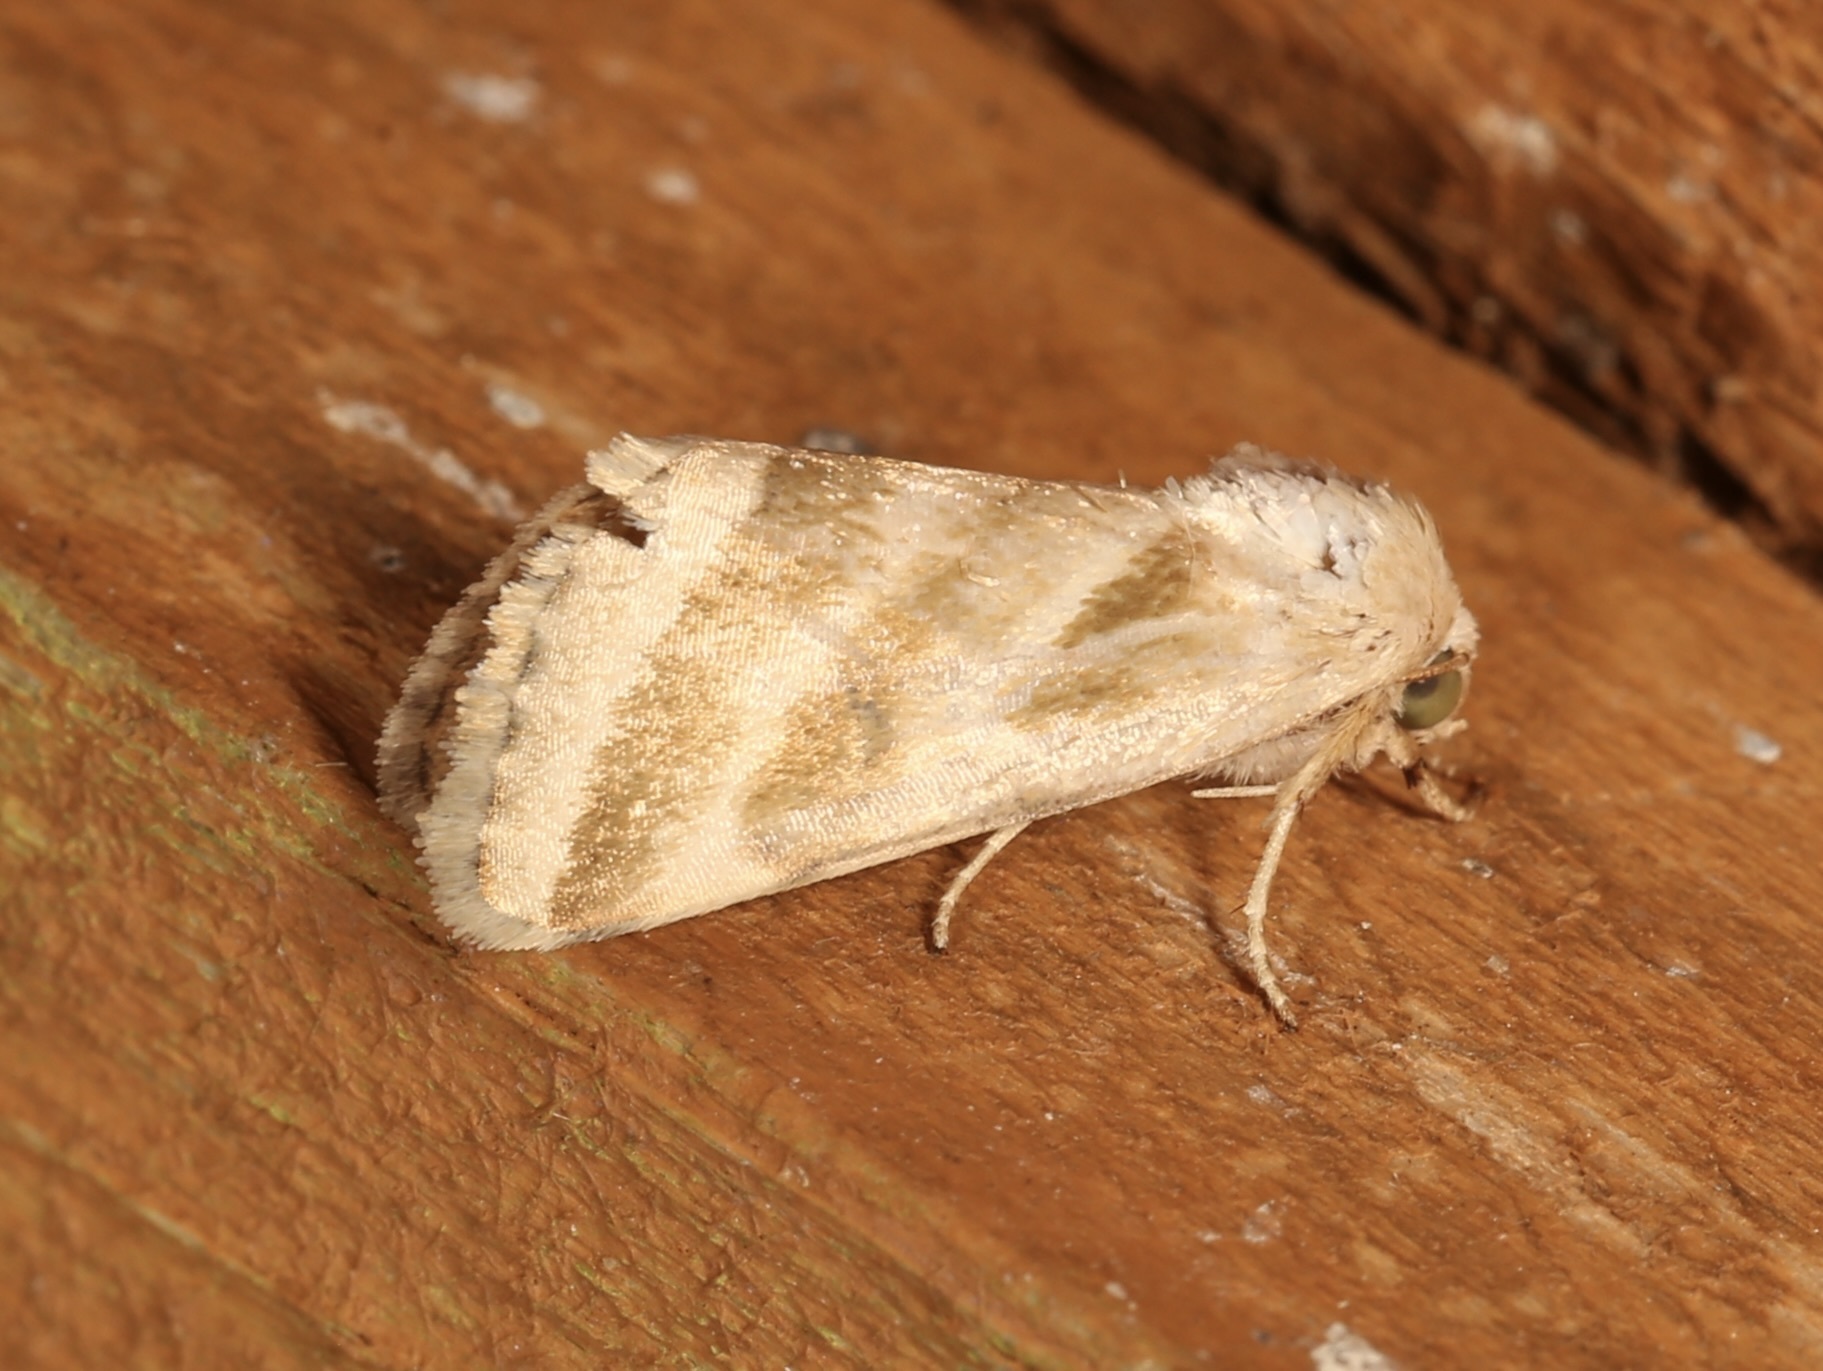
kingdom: Animalia
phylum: Arthropoda
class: Insecta
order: Lepidoptera
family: Noctuidae
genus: Schinia
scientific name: Schinia trifascia
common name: Three-lined flower moth
